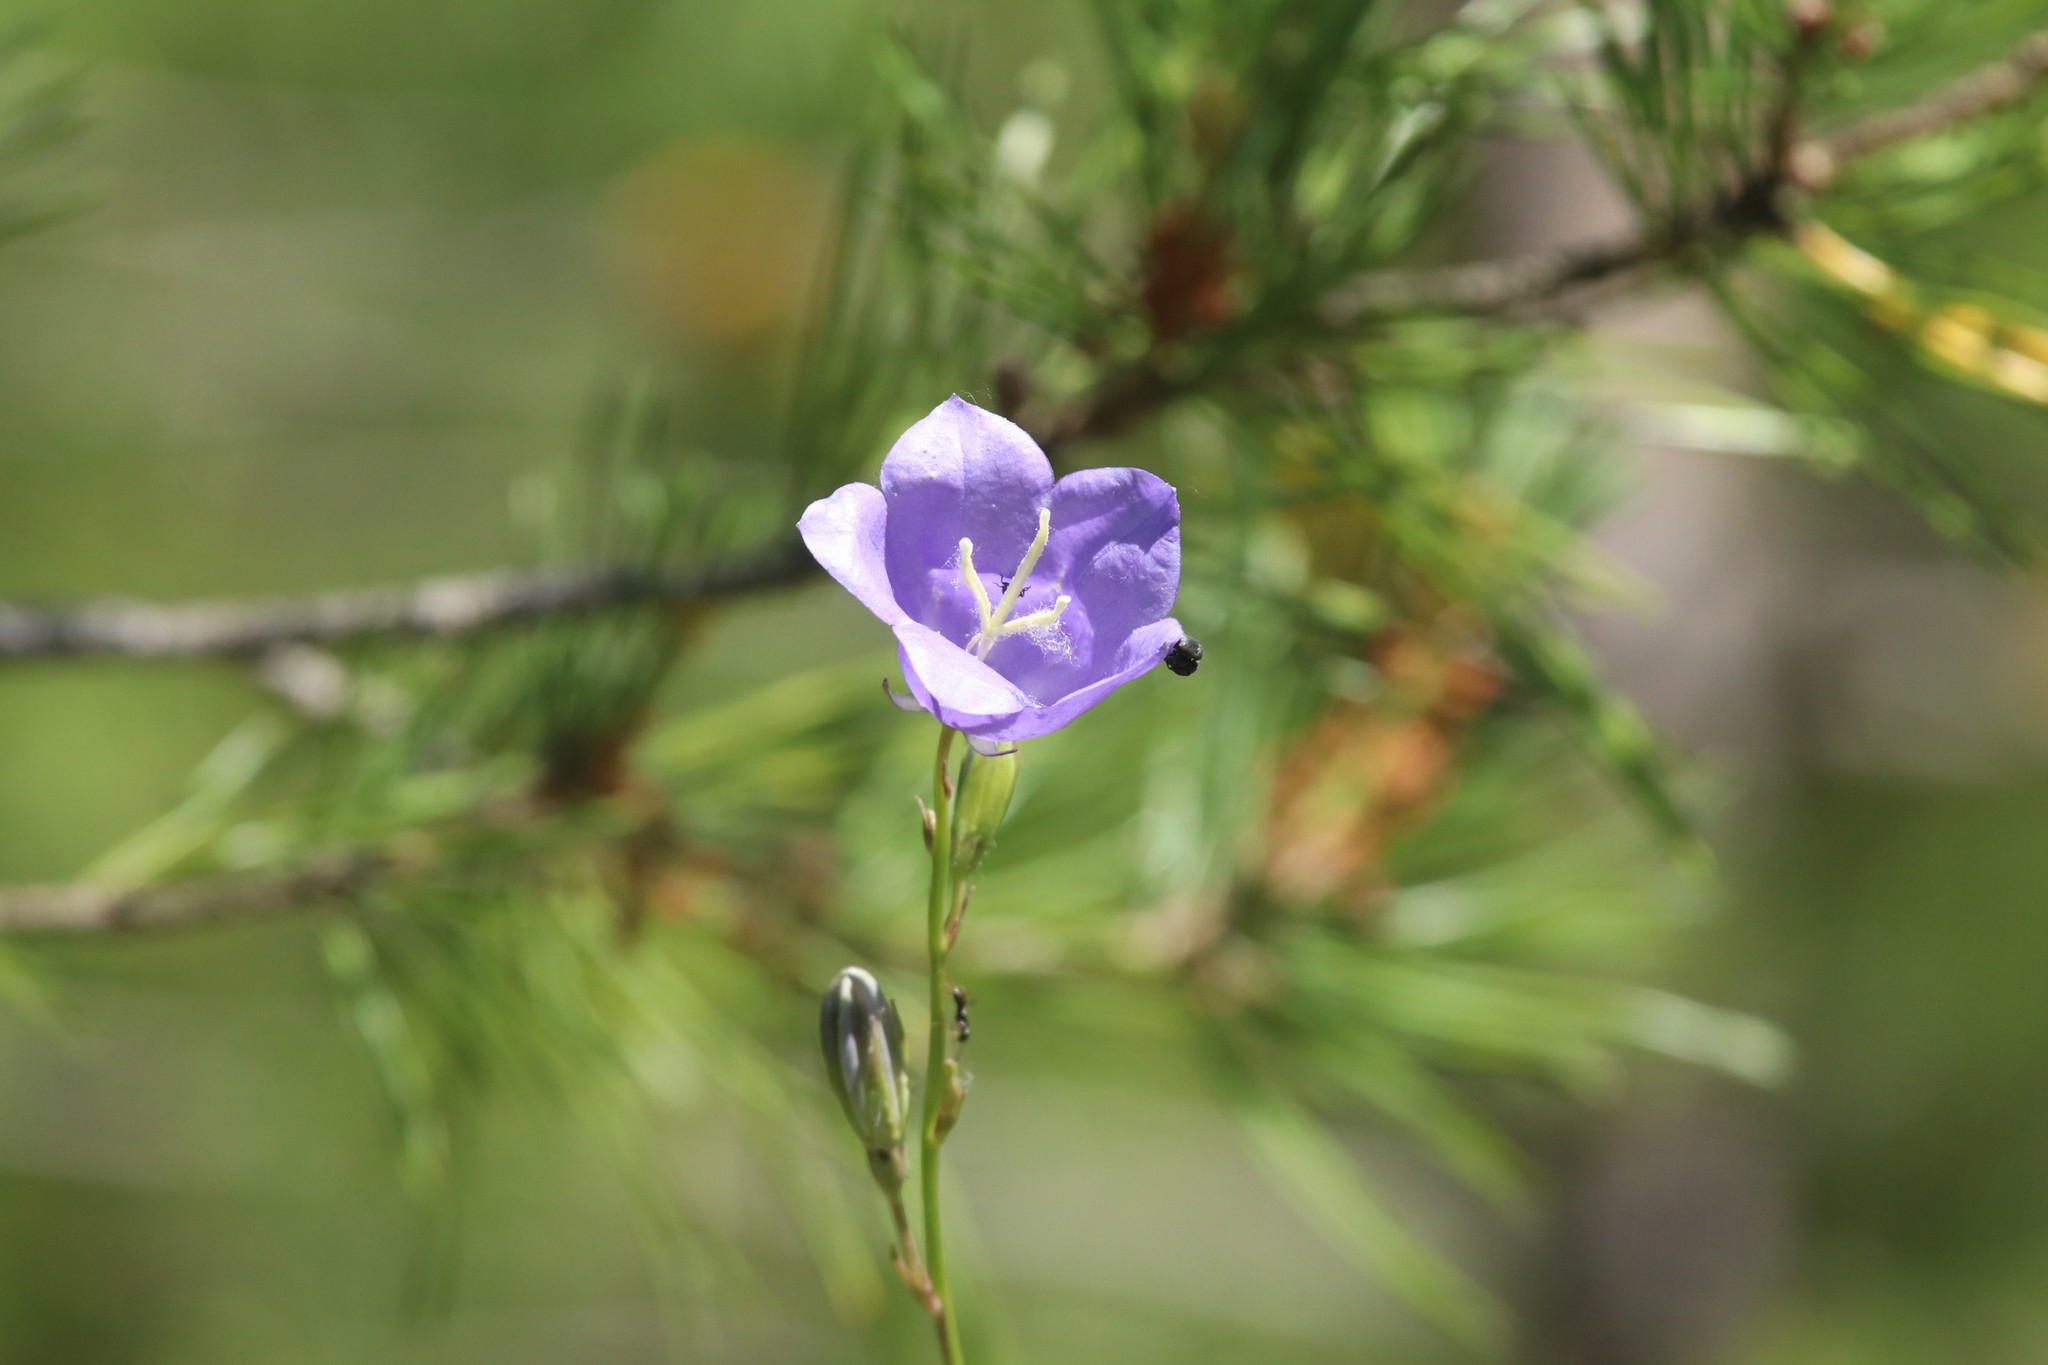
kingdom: Plantae
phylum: Tracheophyta
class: Magnoliopsida
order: Asterales
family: Campanulaceae
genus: Campanula
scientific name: Campanula persicifolia
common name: Peach-leaved bellflower
